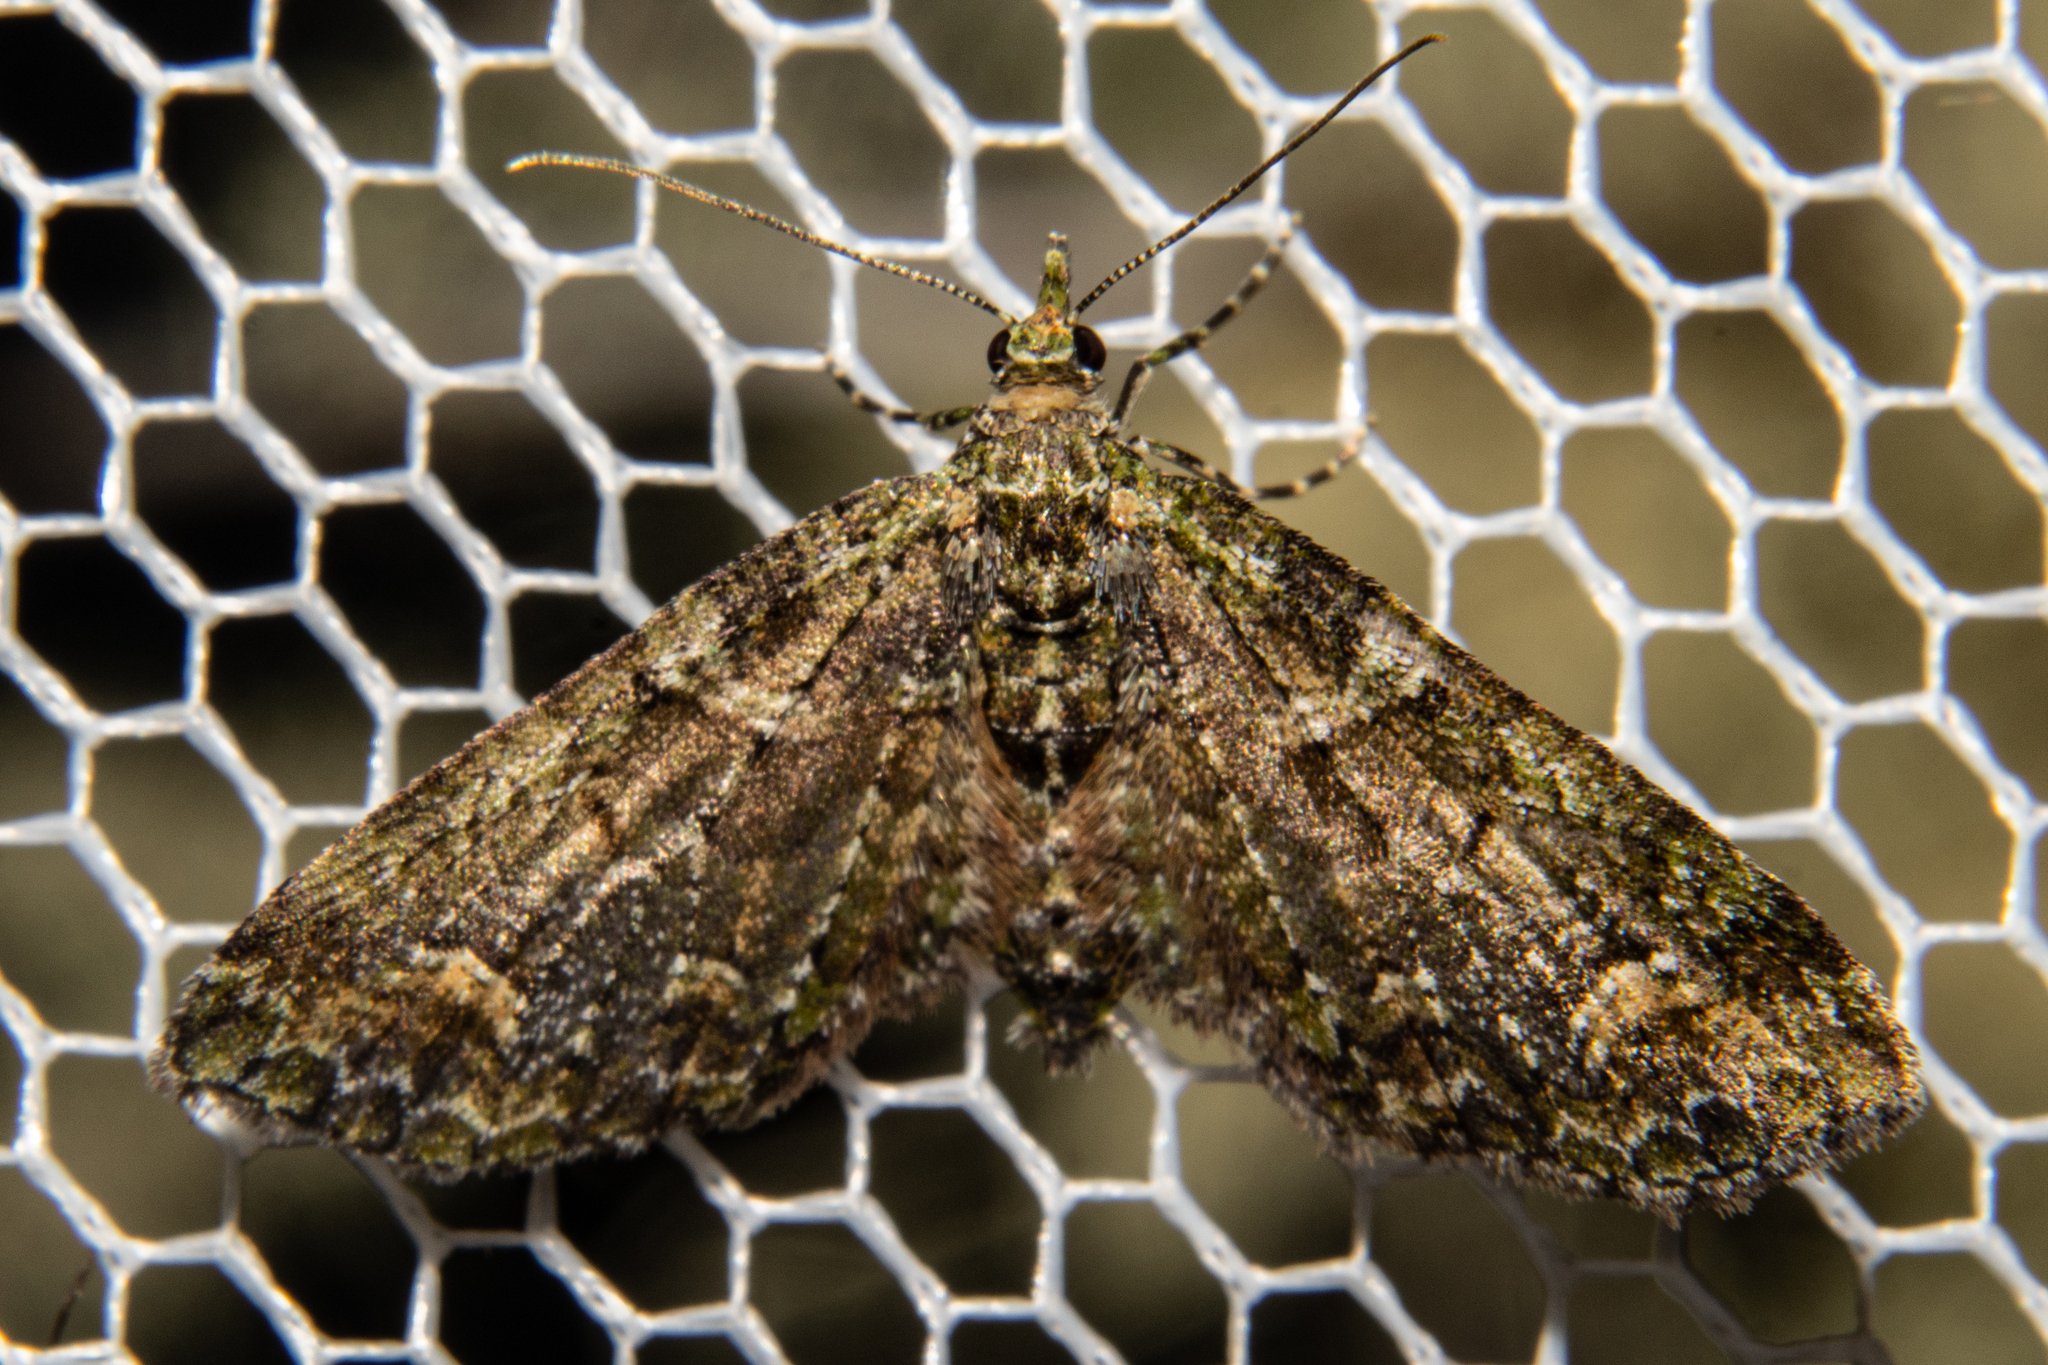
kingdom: Animalia
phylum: Arthropoda
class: Insecta
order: Lepidoptera
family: Geometridae
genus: Idaea
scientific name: Idaea mutanda
